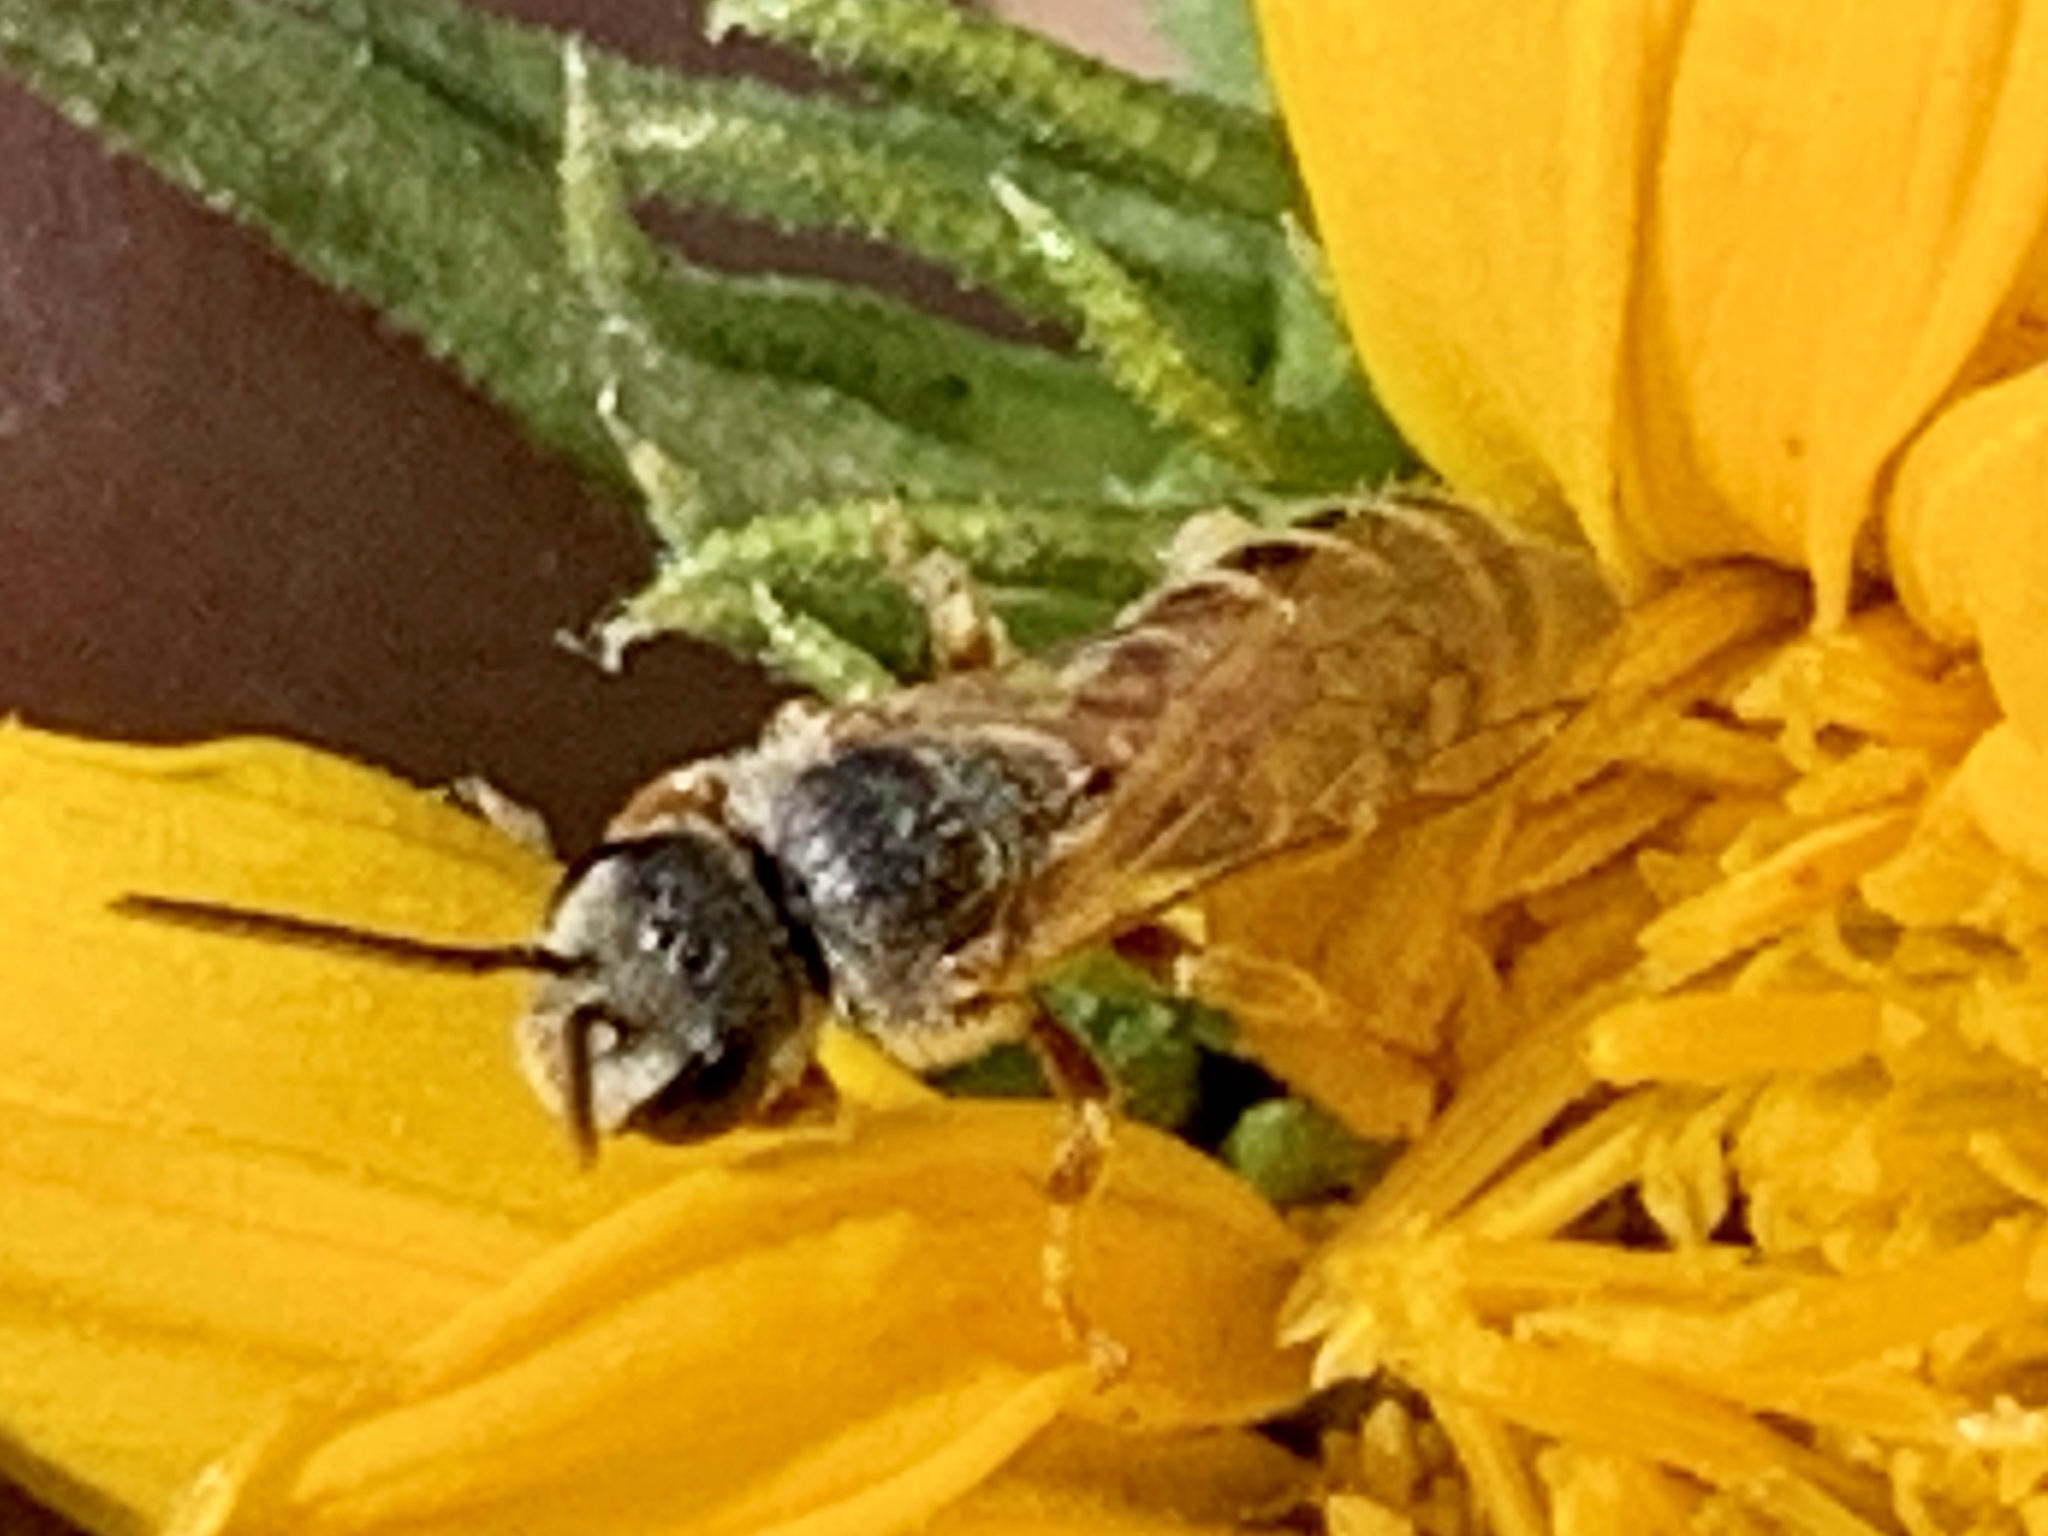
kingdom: Animalia
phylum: Arthropoda
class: Insecta
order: Hymenoptera
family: Halictidae
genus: Halictus
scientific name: Halictus ligatus
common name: Ligated furrow bee
